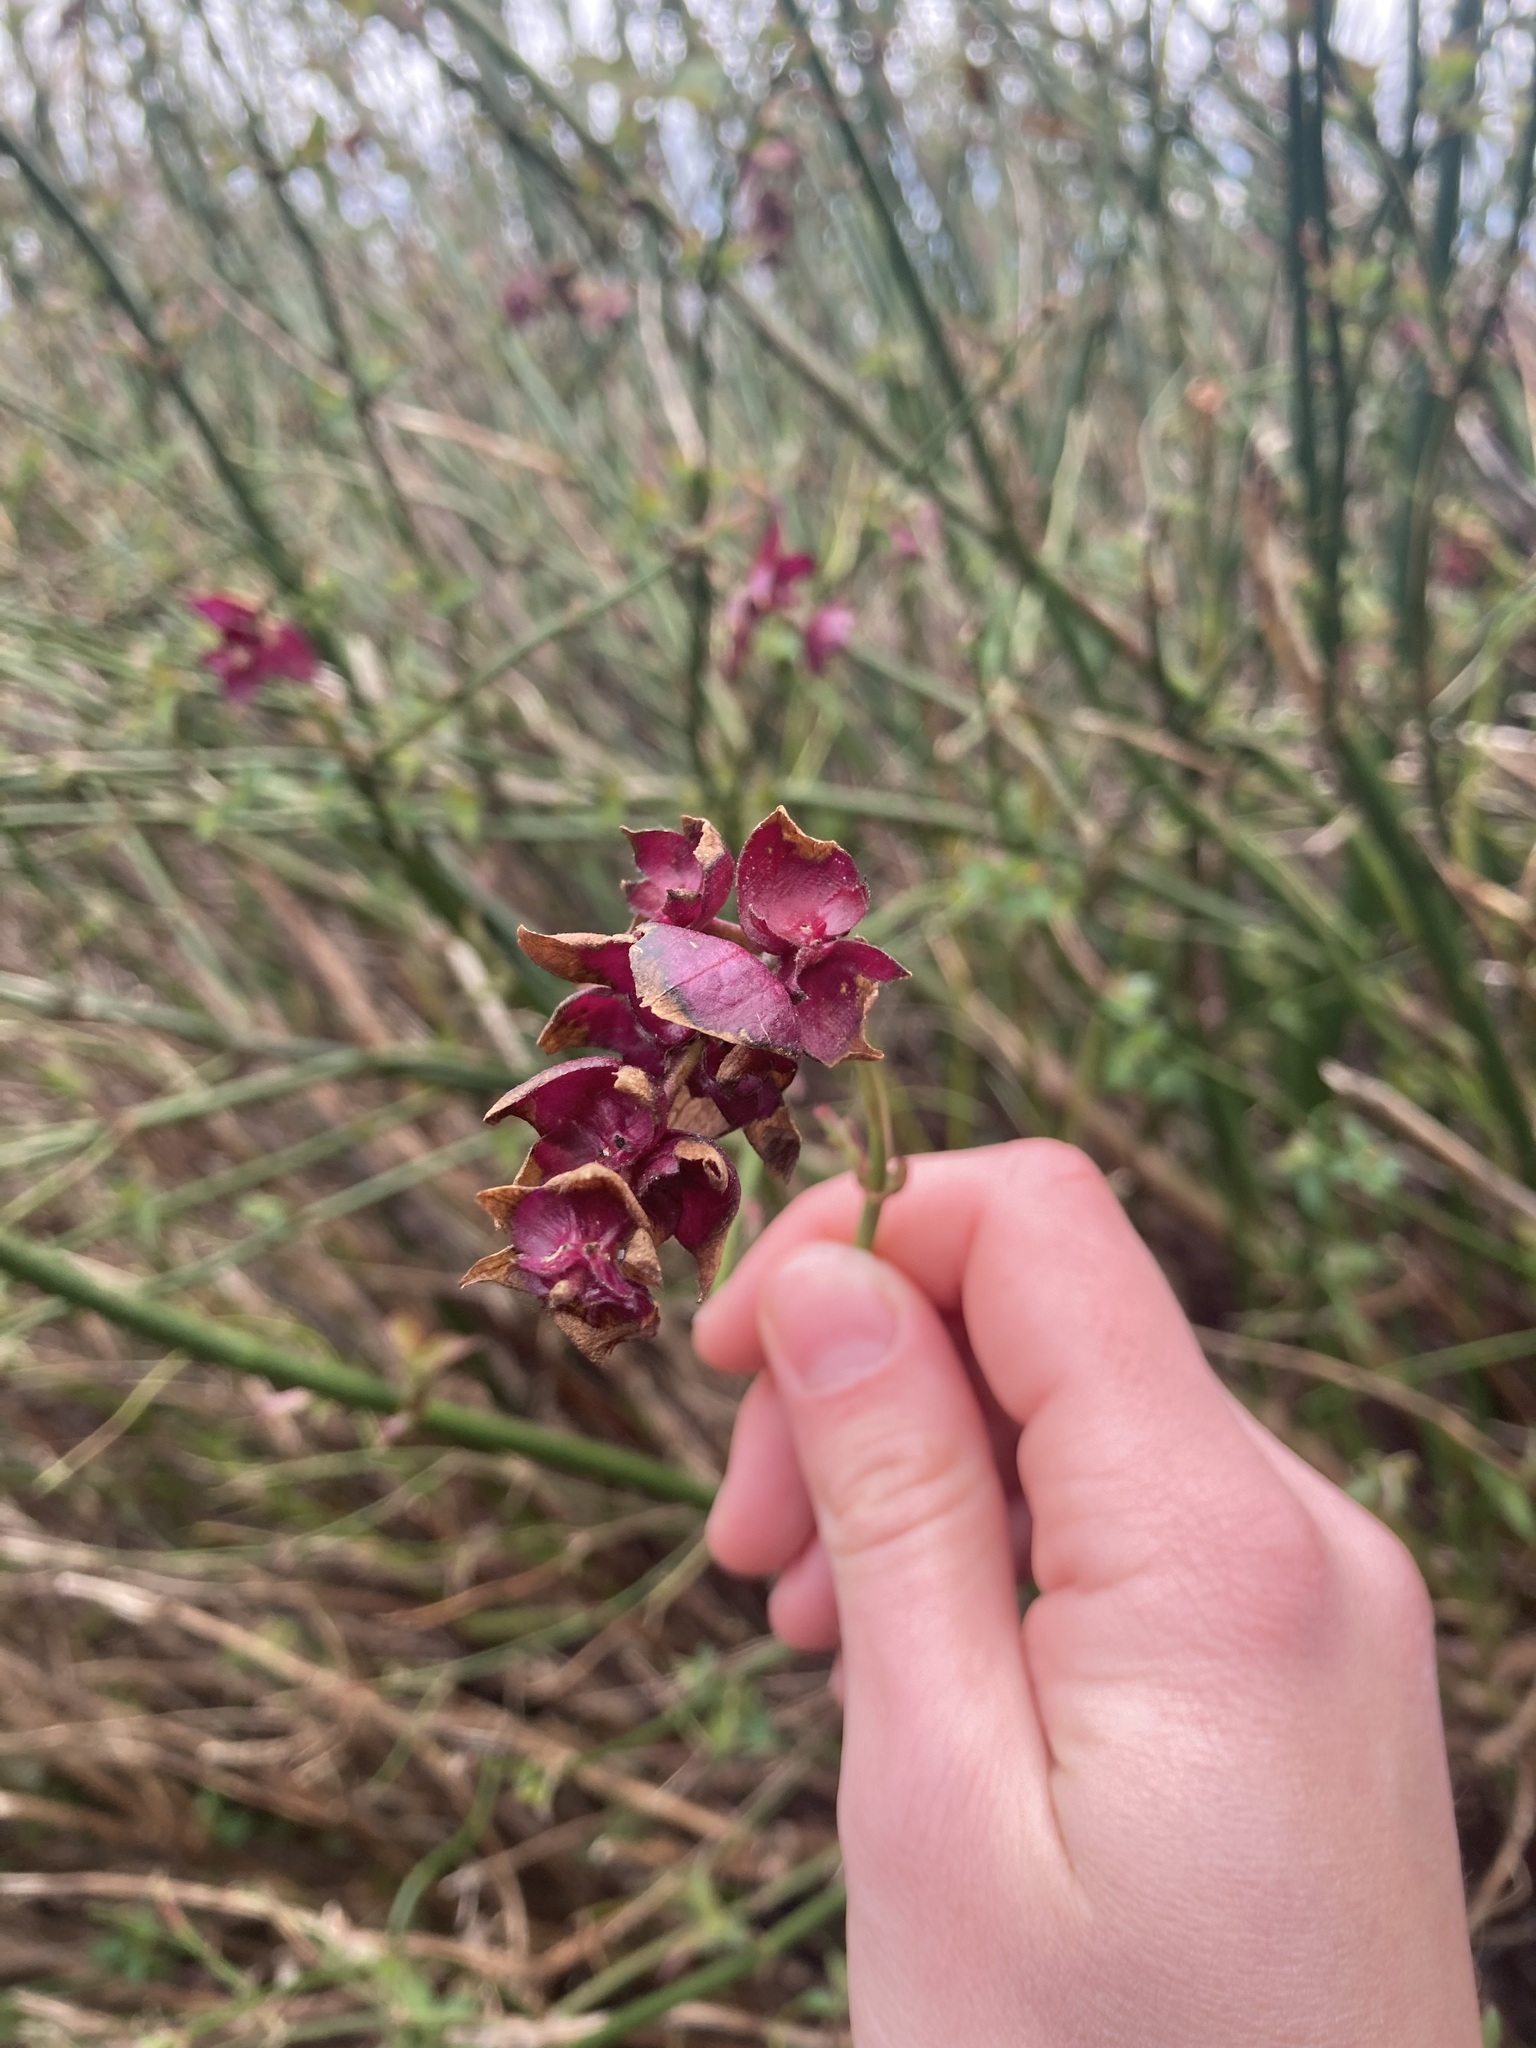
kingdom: Plantae
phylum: Tracheophyta
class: Magnoliopsida
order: Dipsacales
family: Caprifoliaceae
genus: Leycesteria
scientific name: Leycesteria formosa
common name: Himalayan honeysuckle
